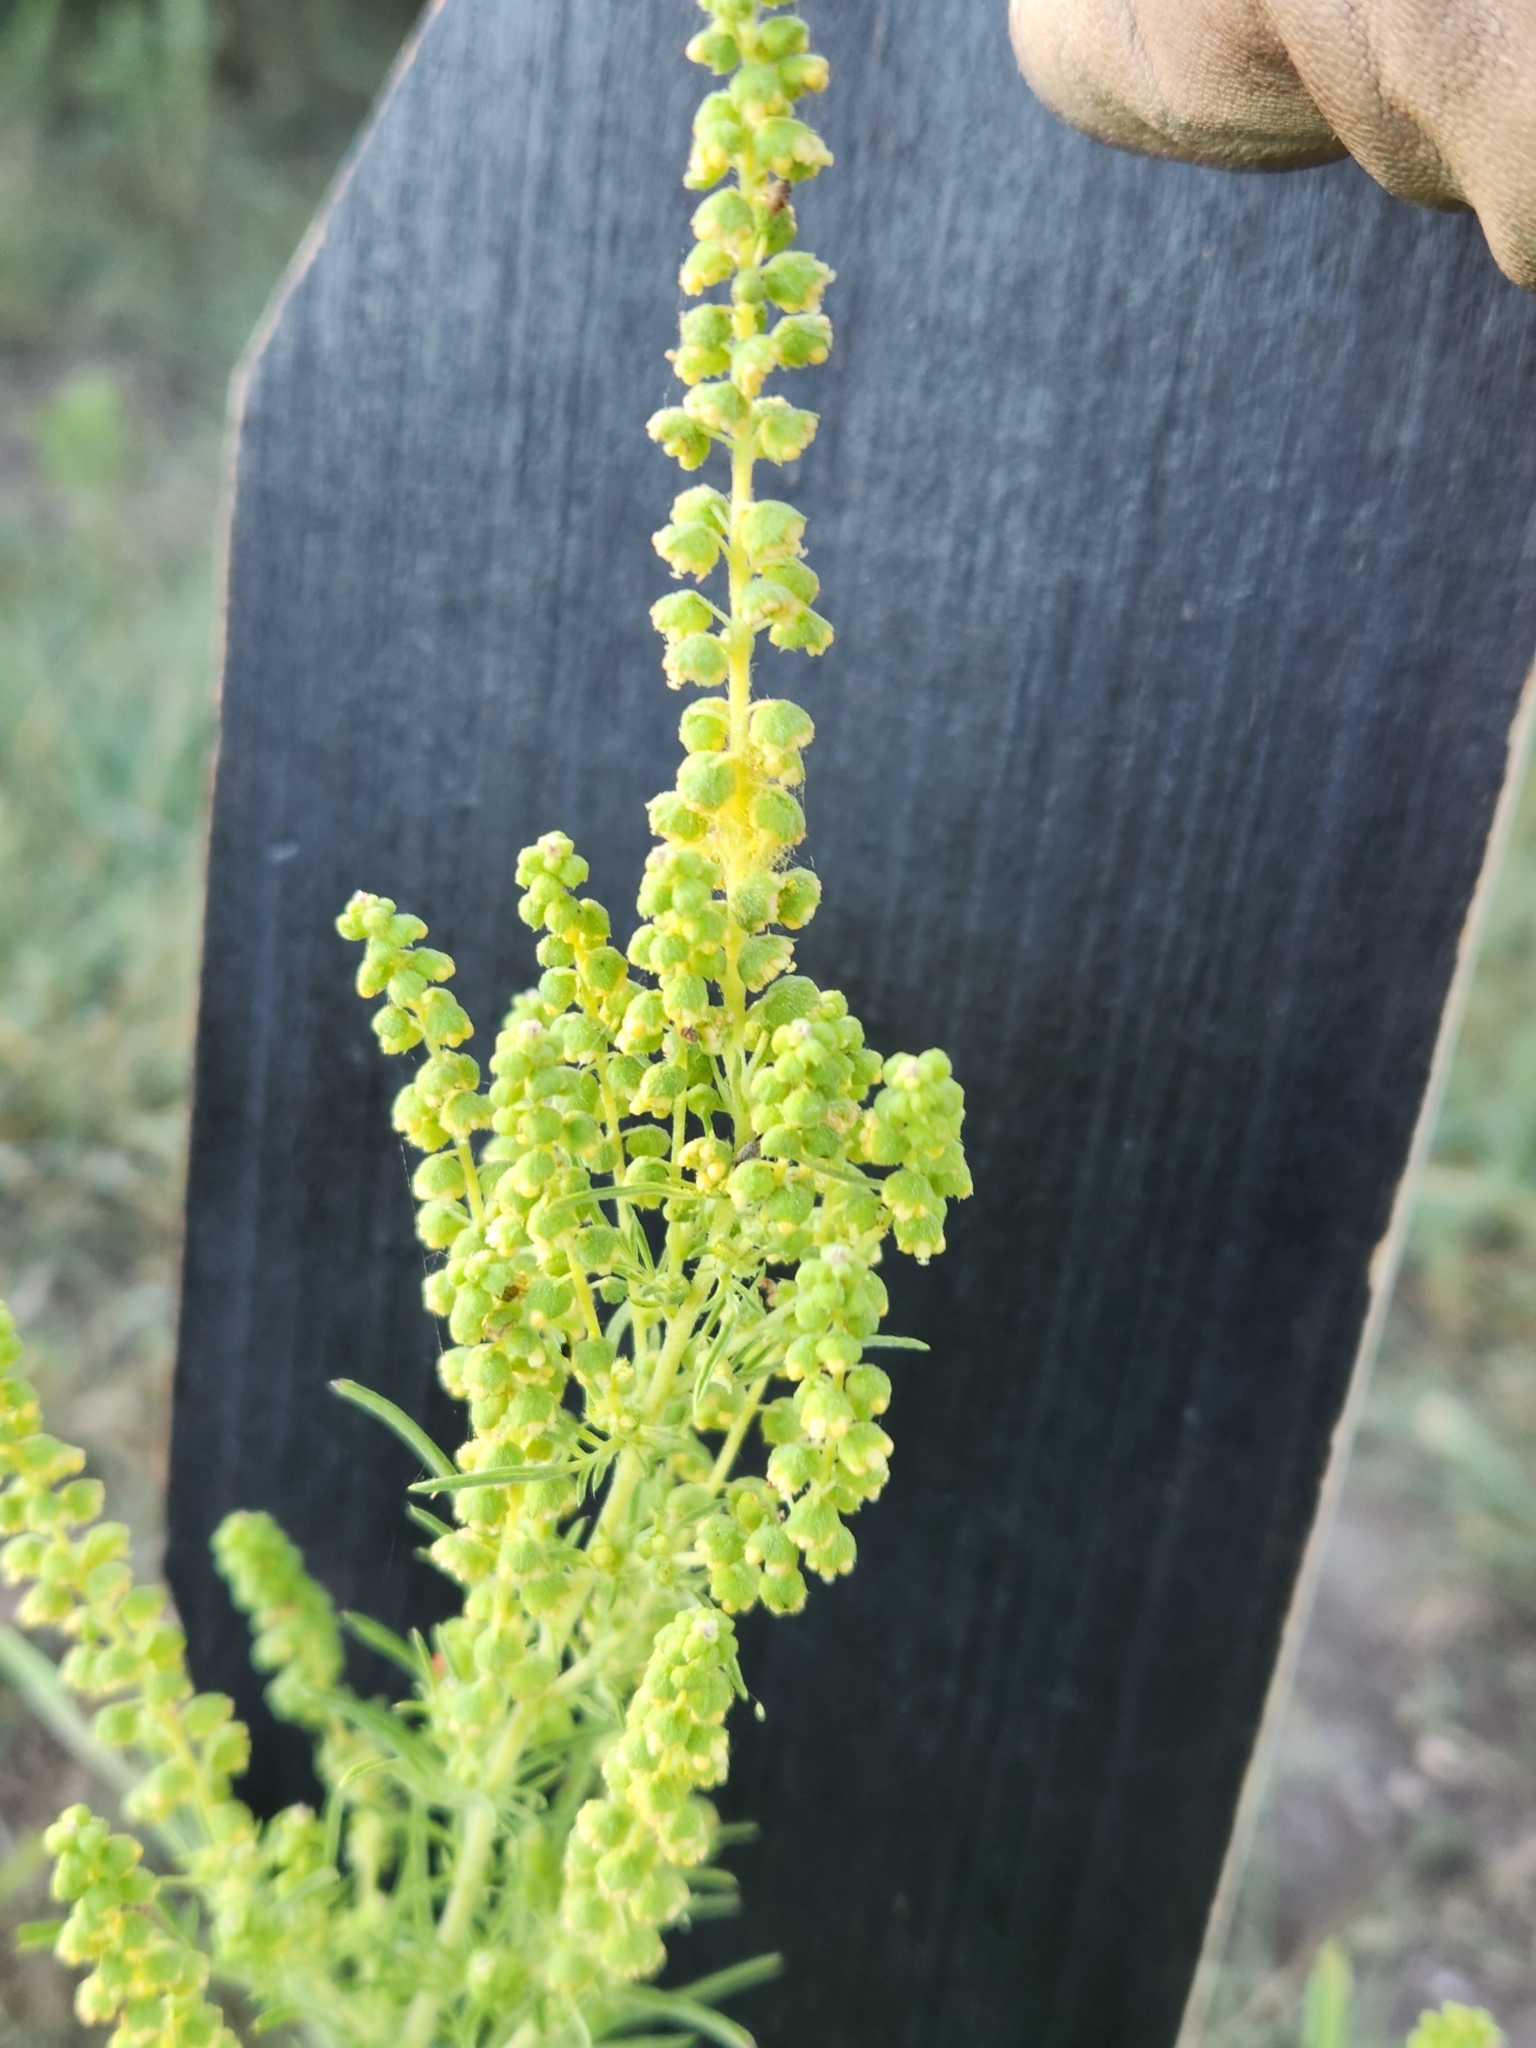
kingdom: Plantae
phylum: Tracheophyta
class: Magnoliopsida
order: Asterales
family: Asteraceae
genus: Ambrosia
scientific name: Ambrosia psilostachya
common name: Perennial ragweed
